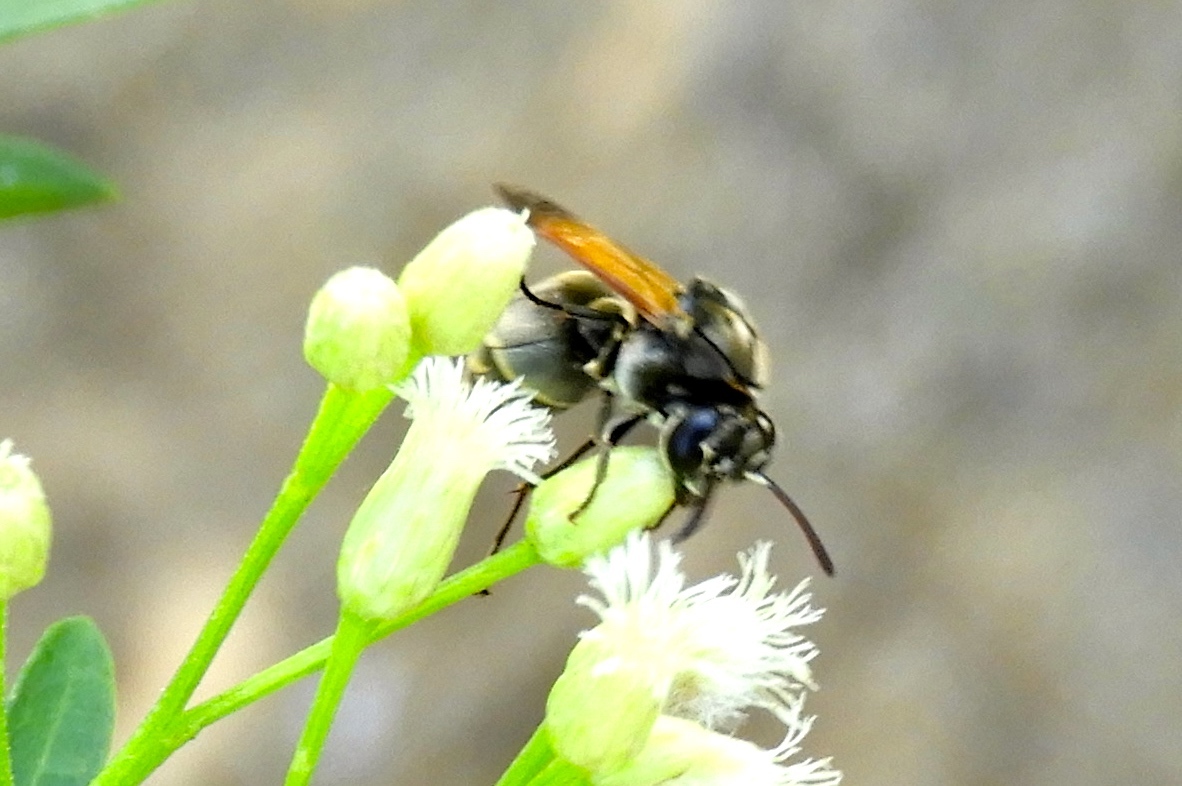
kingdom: Animalia
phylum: Arthropoda
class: Insecta
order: Hymenoptera
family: Vespidae
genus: Brachygastra
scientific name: Brachygastra mellifica
